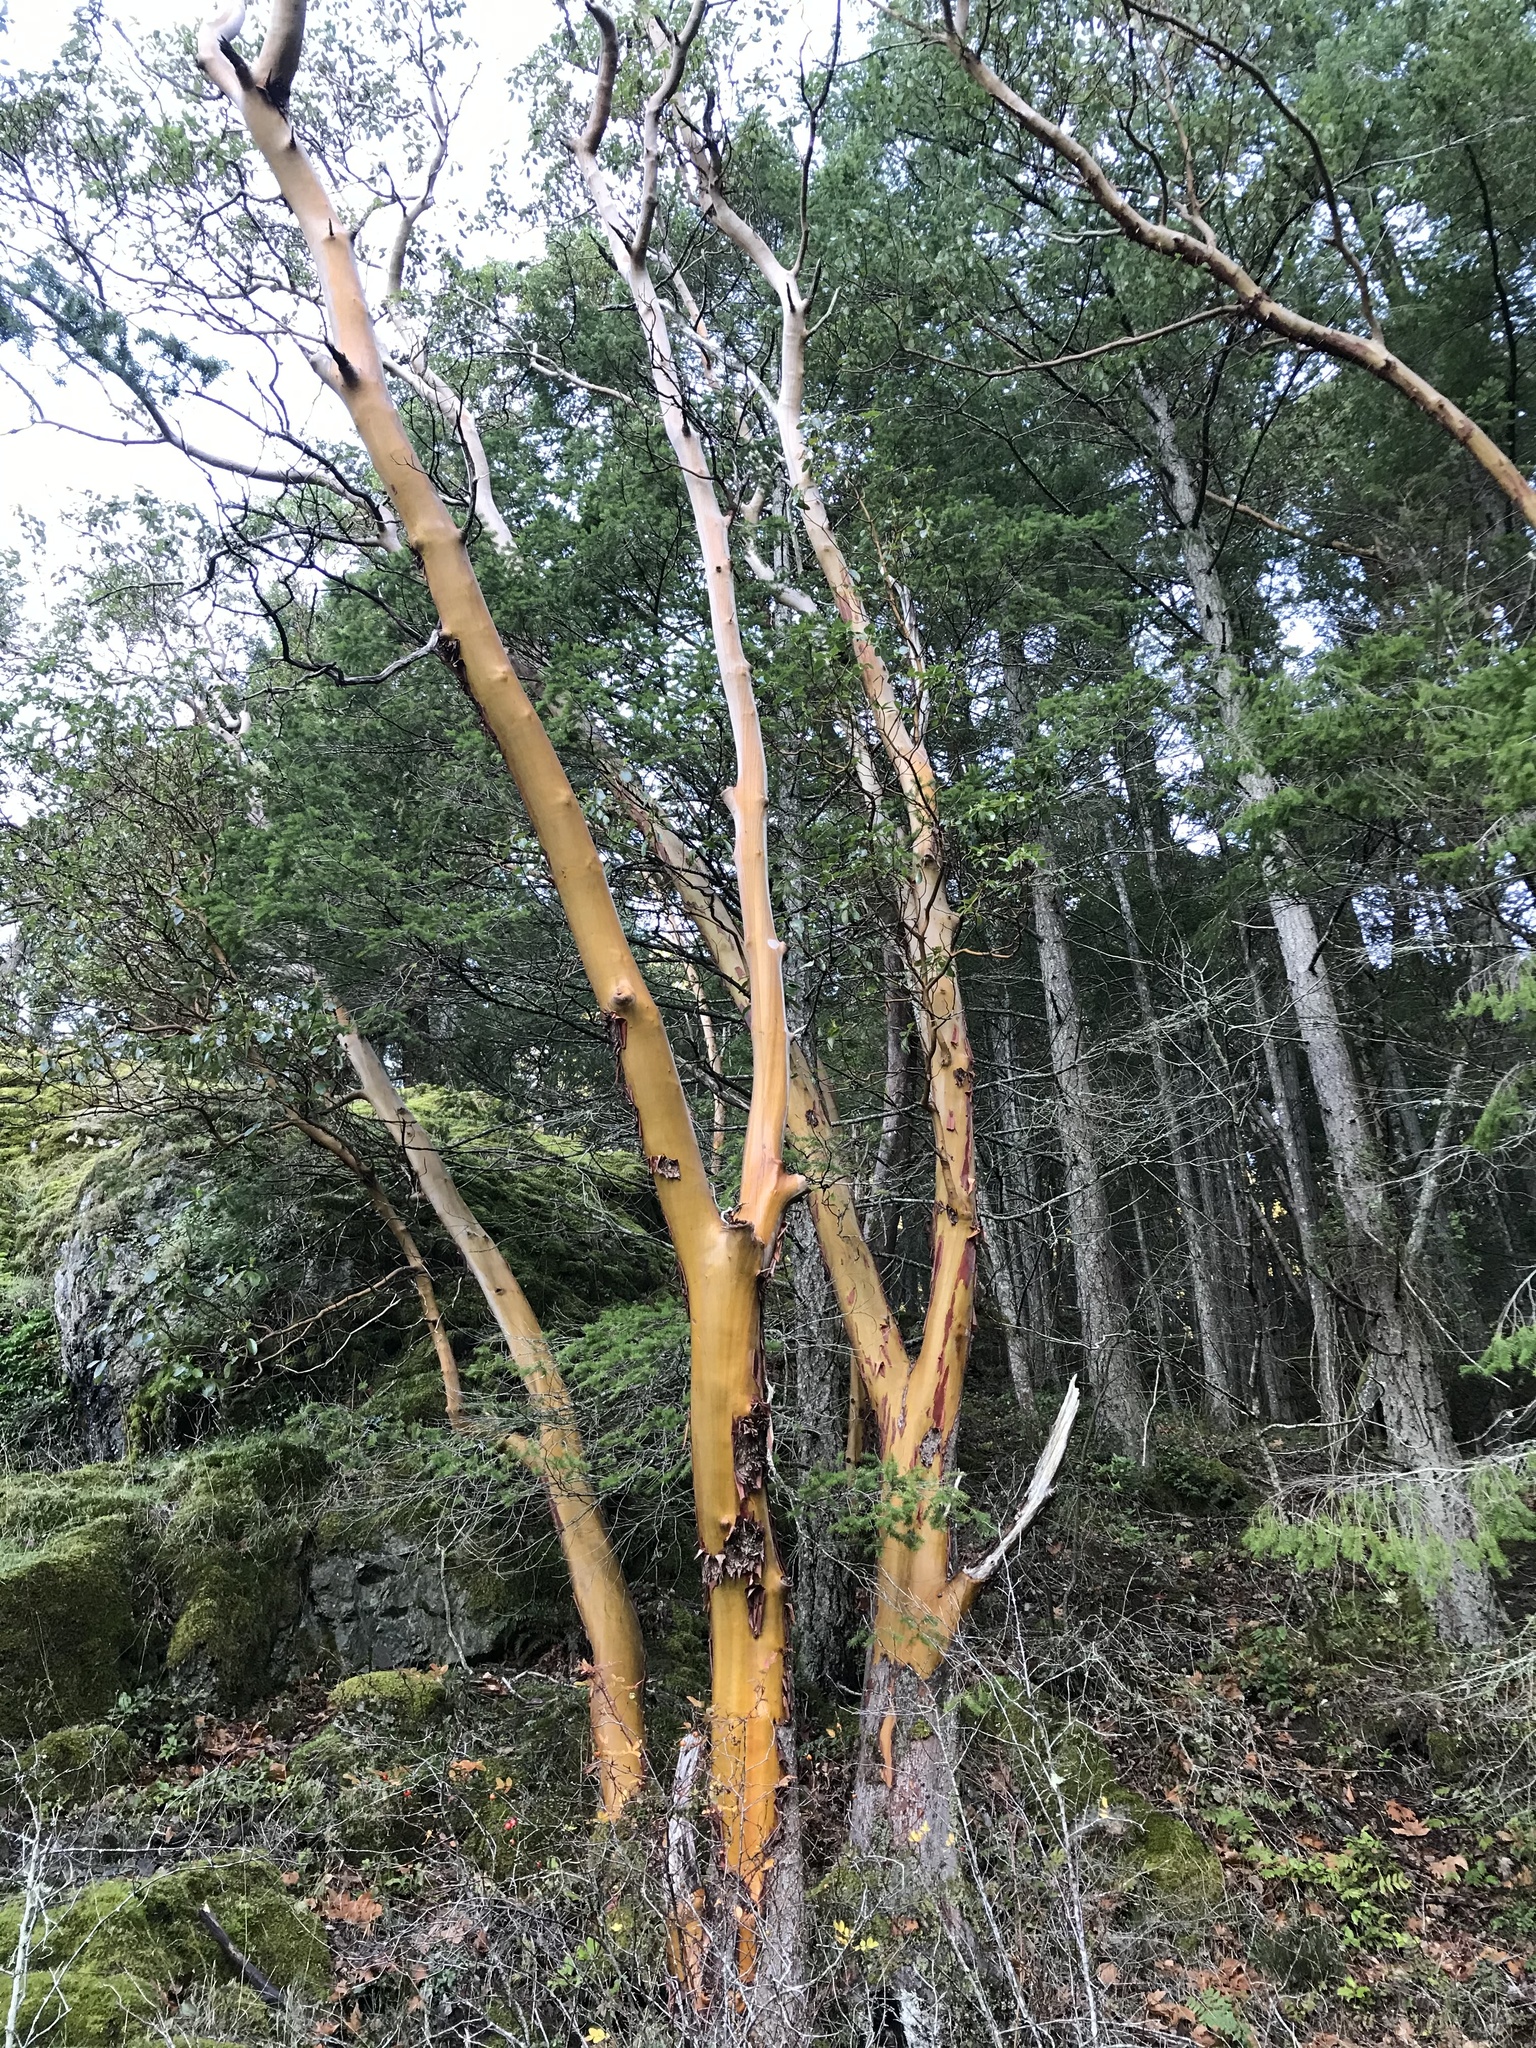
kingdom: Plantae
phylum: Tracheophyta
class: Magnoliopsida
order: Ericales
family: Ericaceae
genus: Arbutus
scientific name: Arbutus menziesii
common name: Pacific madrone
